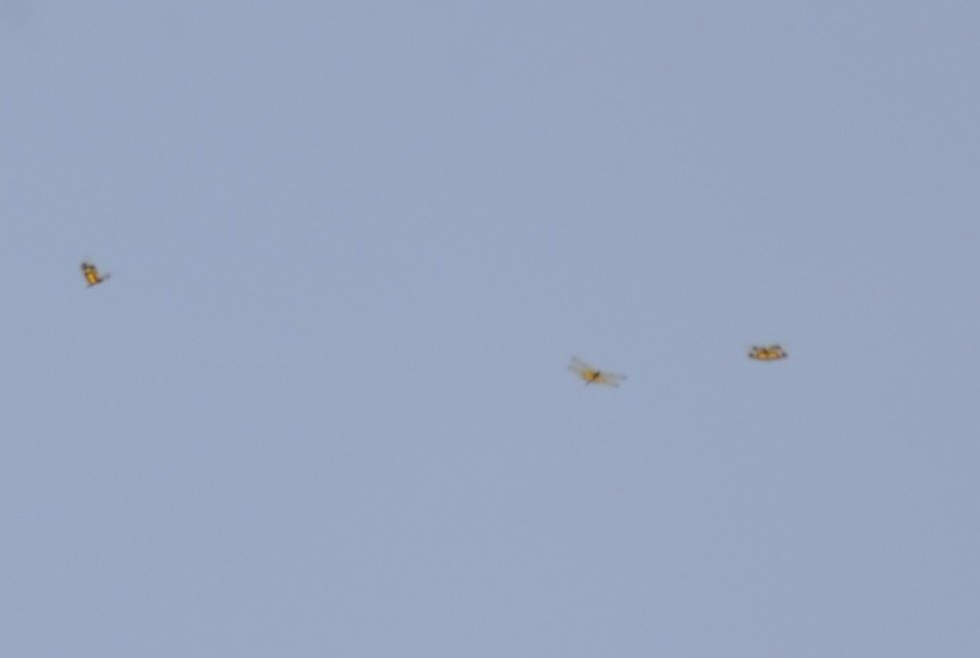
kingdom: Animalia
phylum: Arthropoda
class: Insecta
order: Odonata
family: Libellulidae
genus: Rhyothemis
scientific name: Rhyothemis variegata
